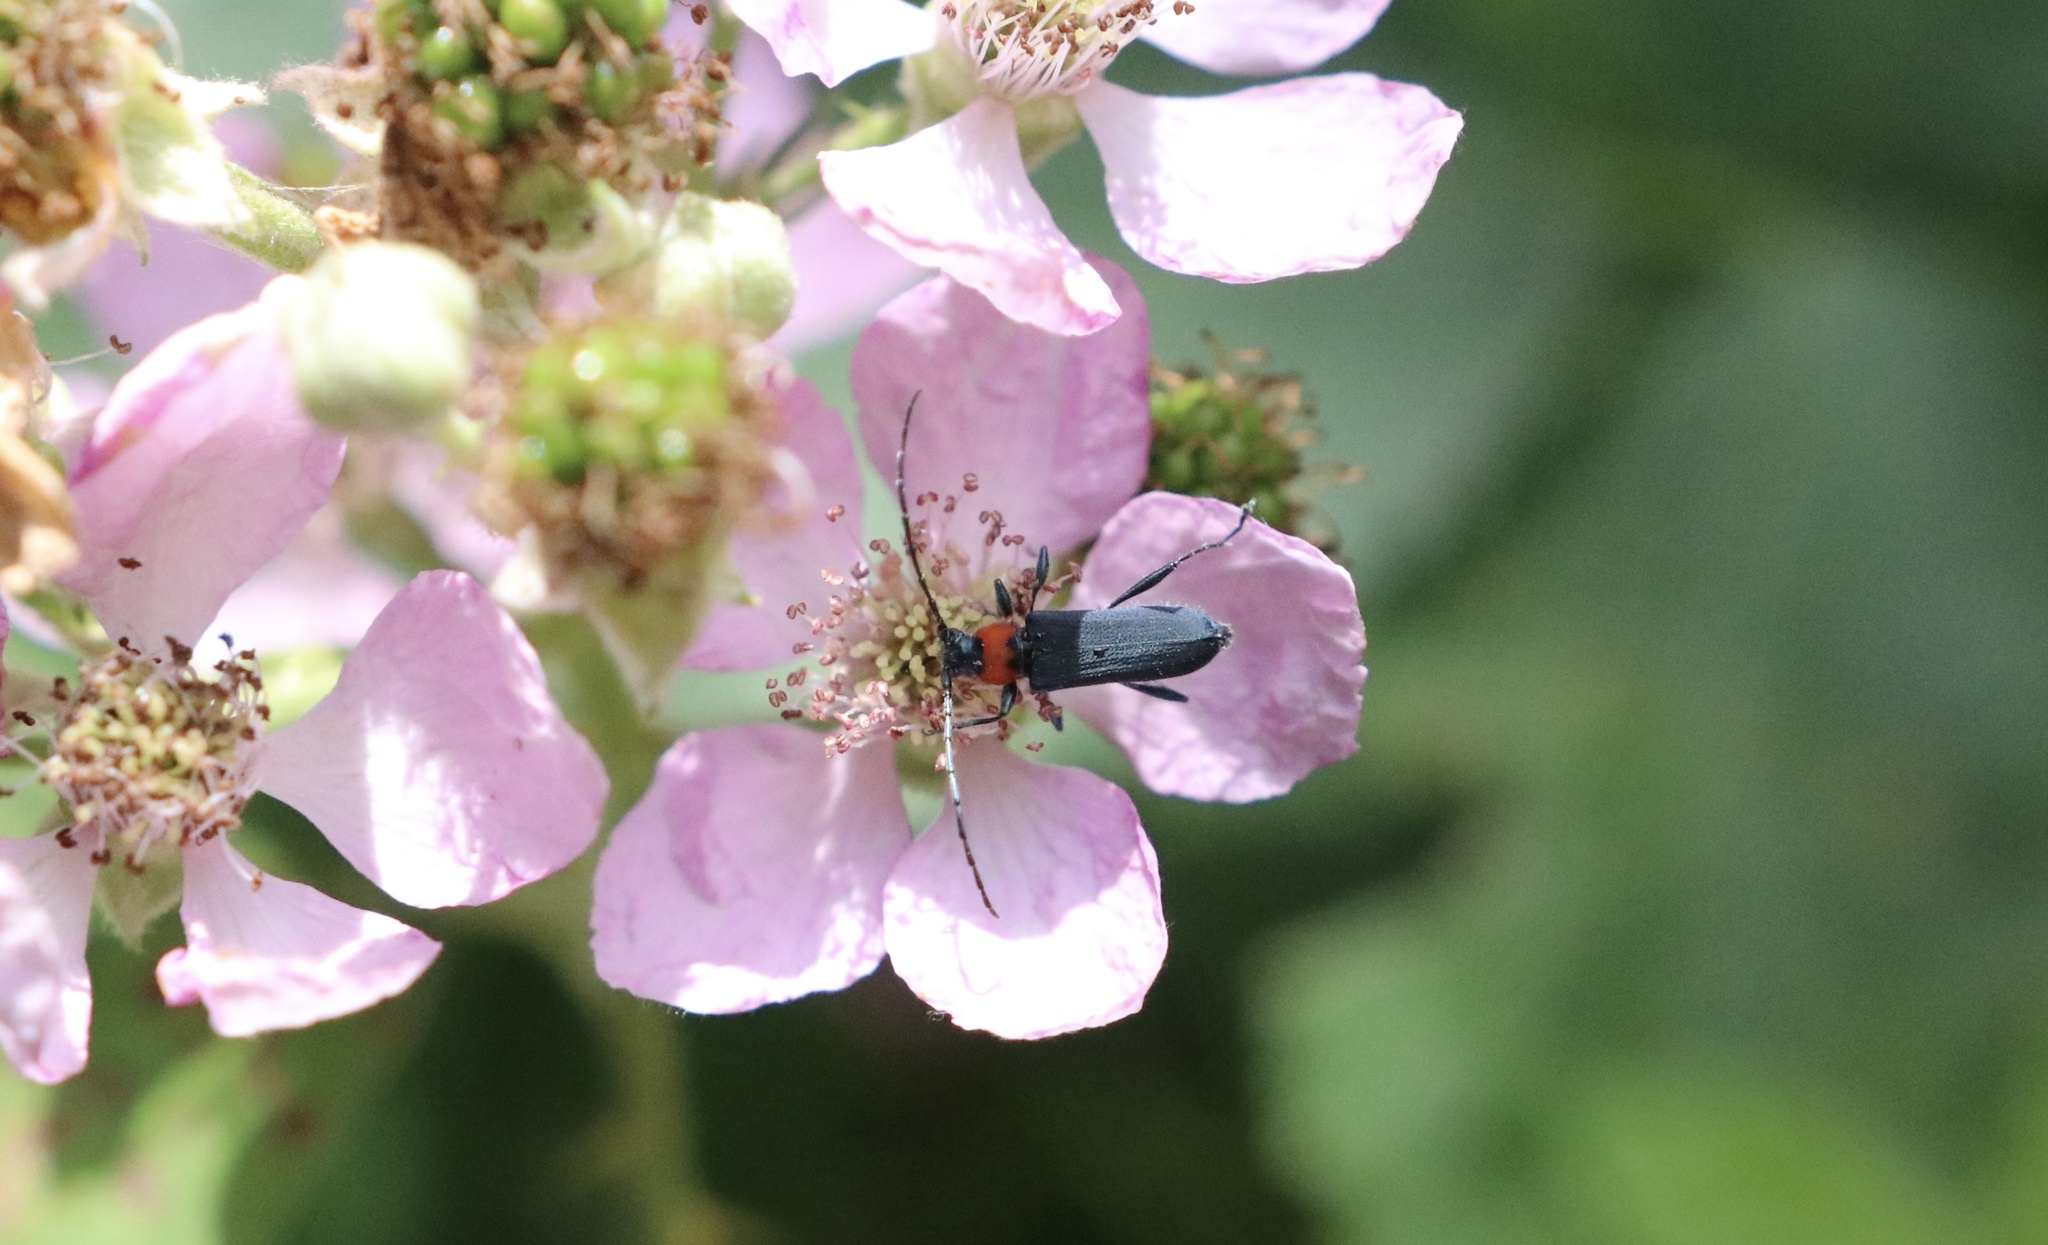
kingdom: Animalia
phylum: Arthropoda
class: Insecta
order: Coleoptera
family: Cerambycidae
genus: Eryphus
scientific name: Eryphus laetus
